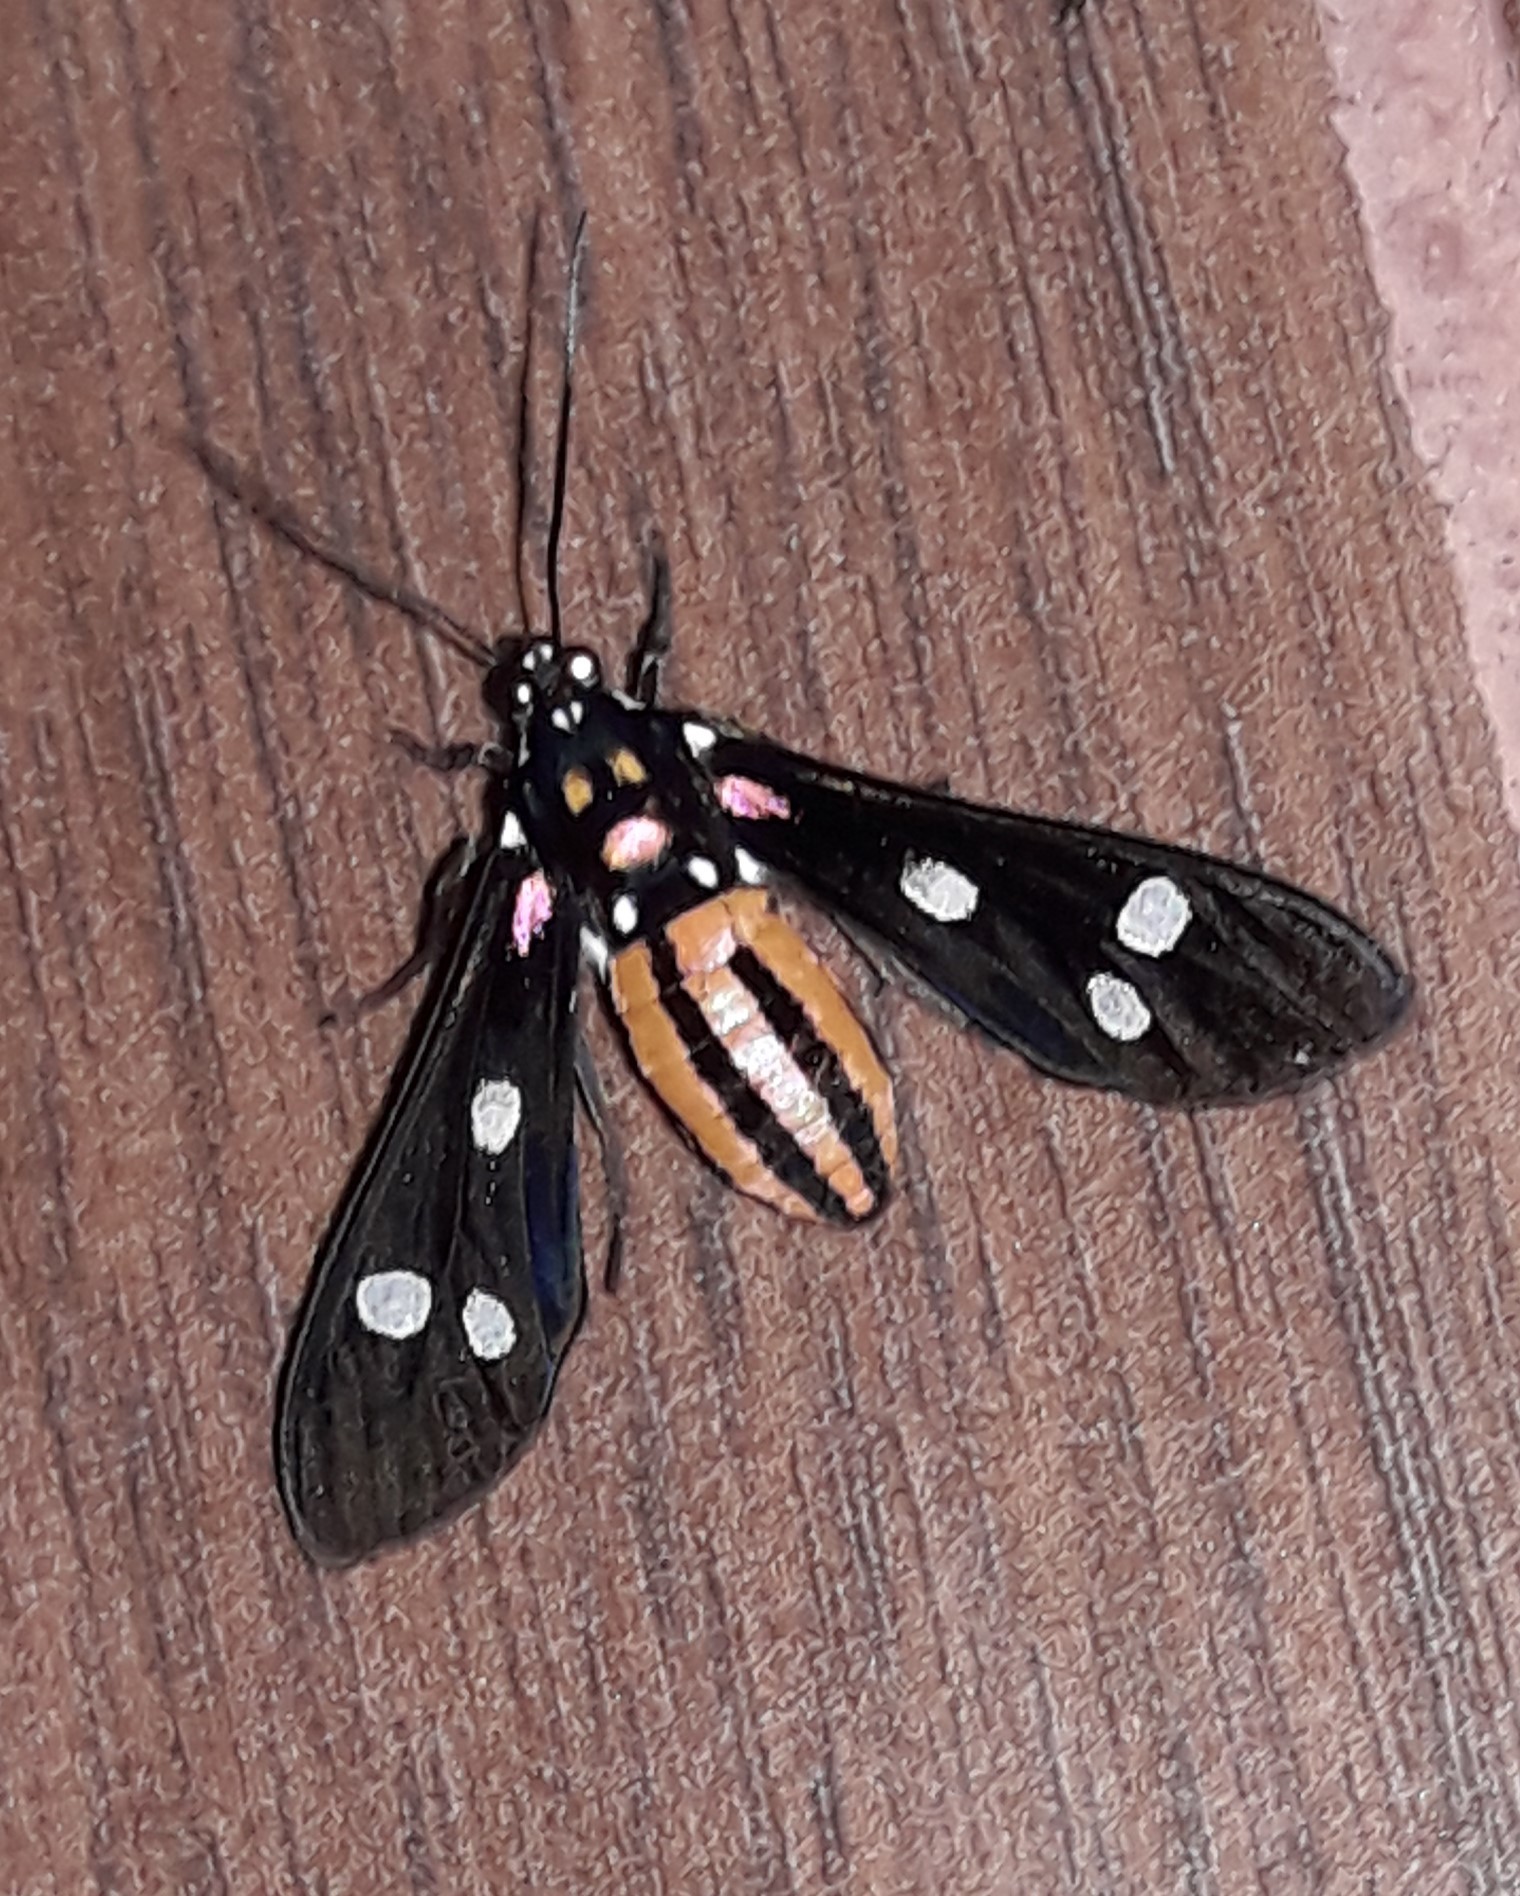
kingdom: Animalia
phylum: Arthropoda
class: Insecta
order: Lepidoptera
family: Erebidae
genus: Calonotos
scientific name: Calonotos tiburtus
